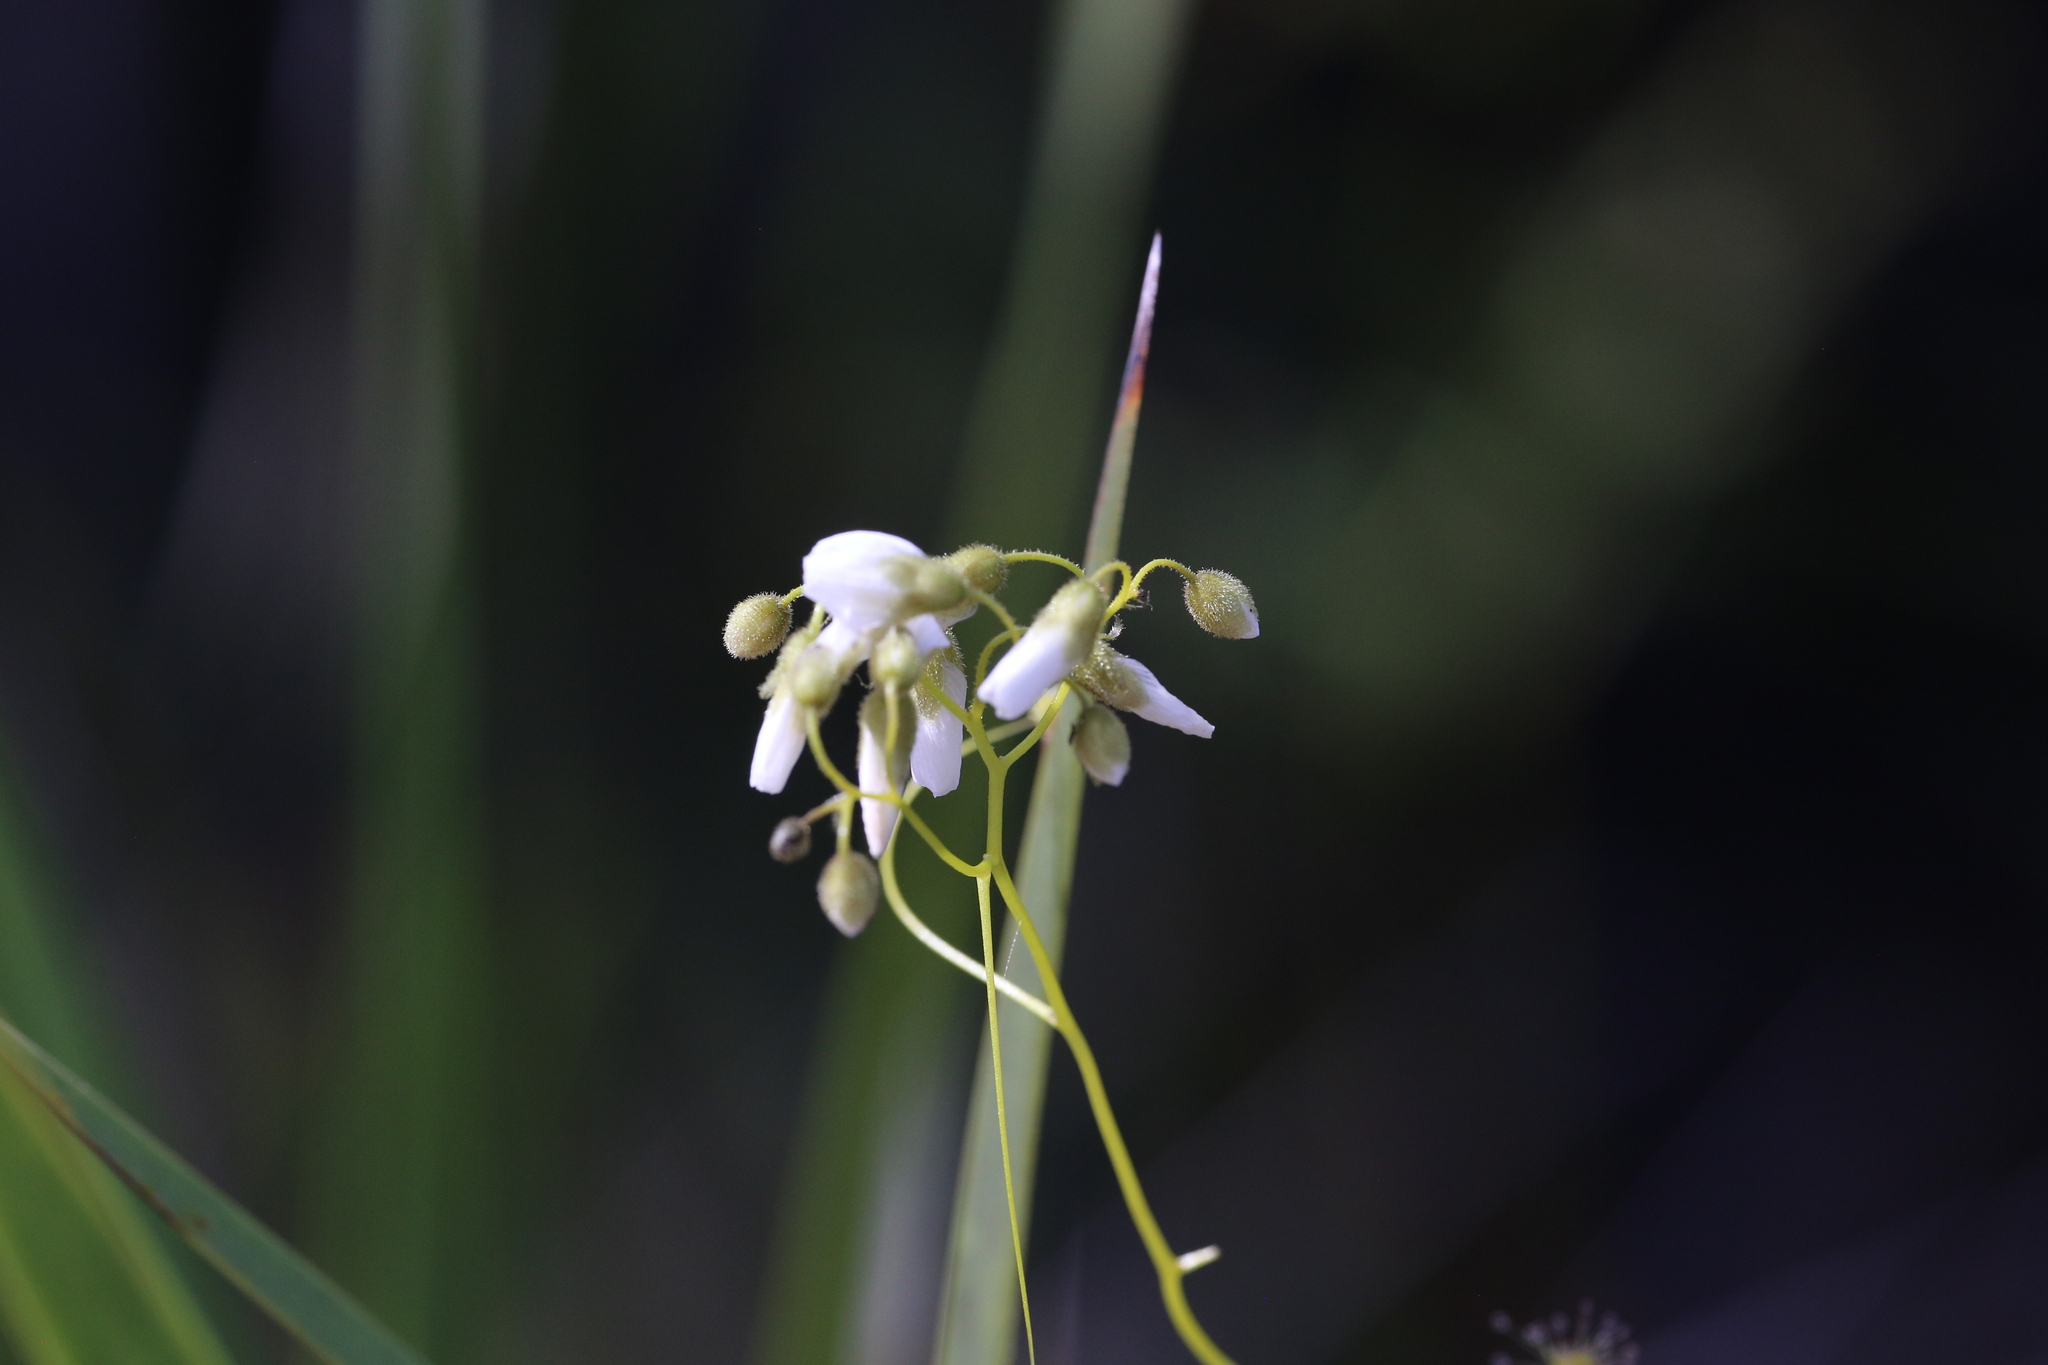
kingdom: Plantae
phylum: Tracheophyta
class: Magnoliopsida
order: Caryophyllales
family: Droseraceae
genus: Drosera
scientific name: Drosera erythrogyne
